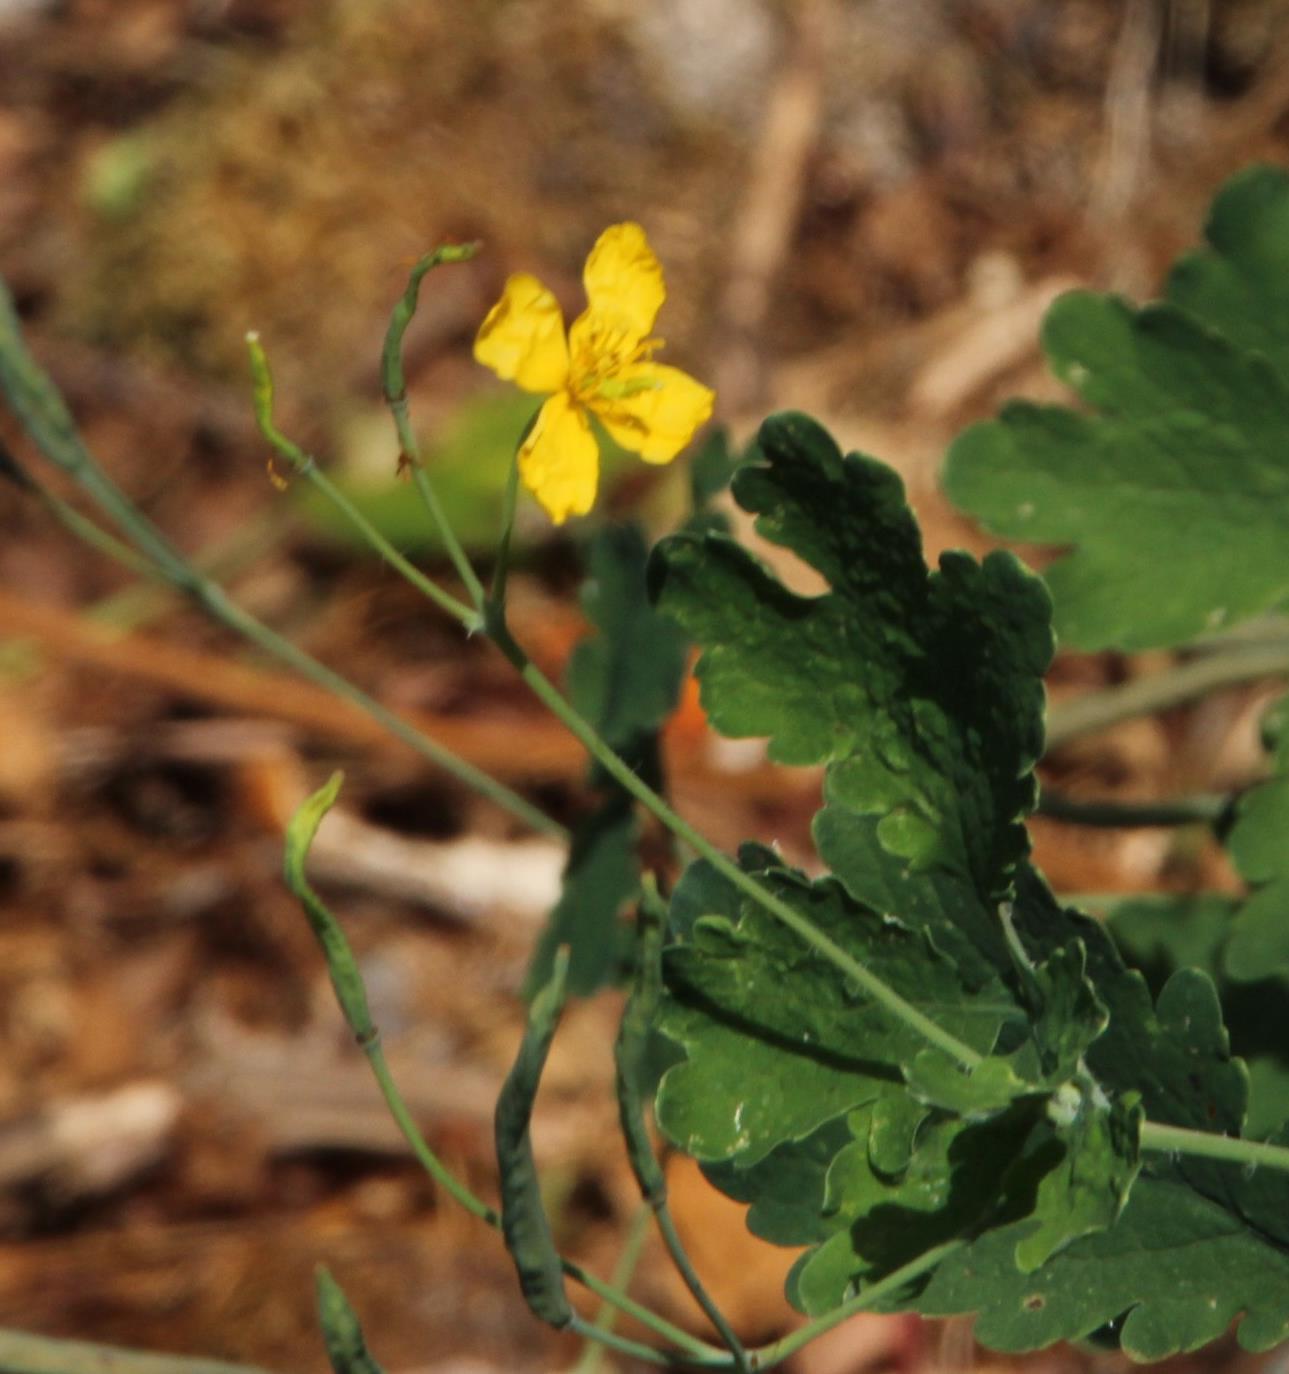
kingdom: Plantae
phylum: Tracheophyta
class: Magnoliopsida
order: Ranunculales
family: Papaveraceae
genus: Chelidonium
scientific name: Chelidonium majus
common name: Greater celandine
